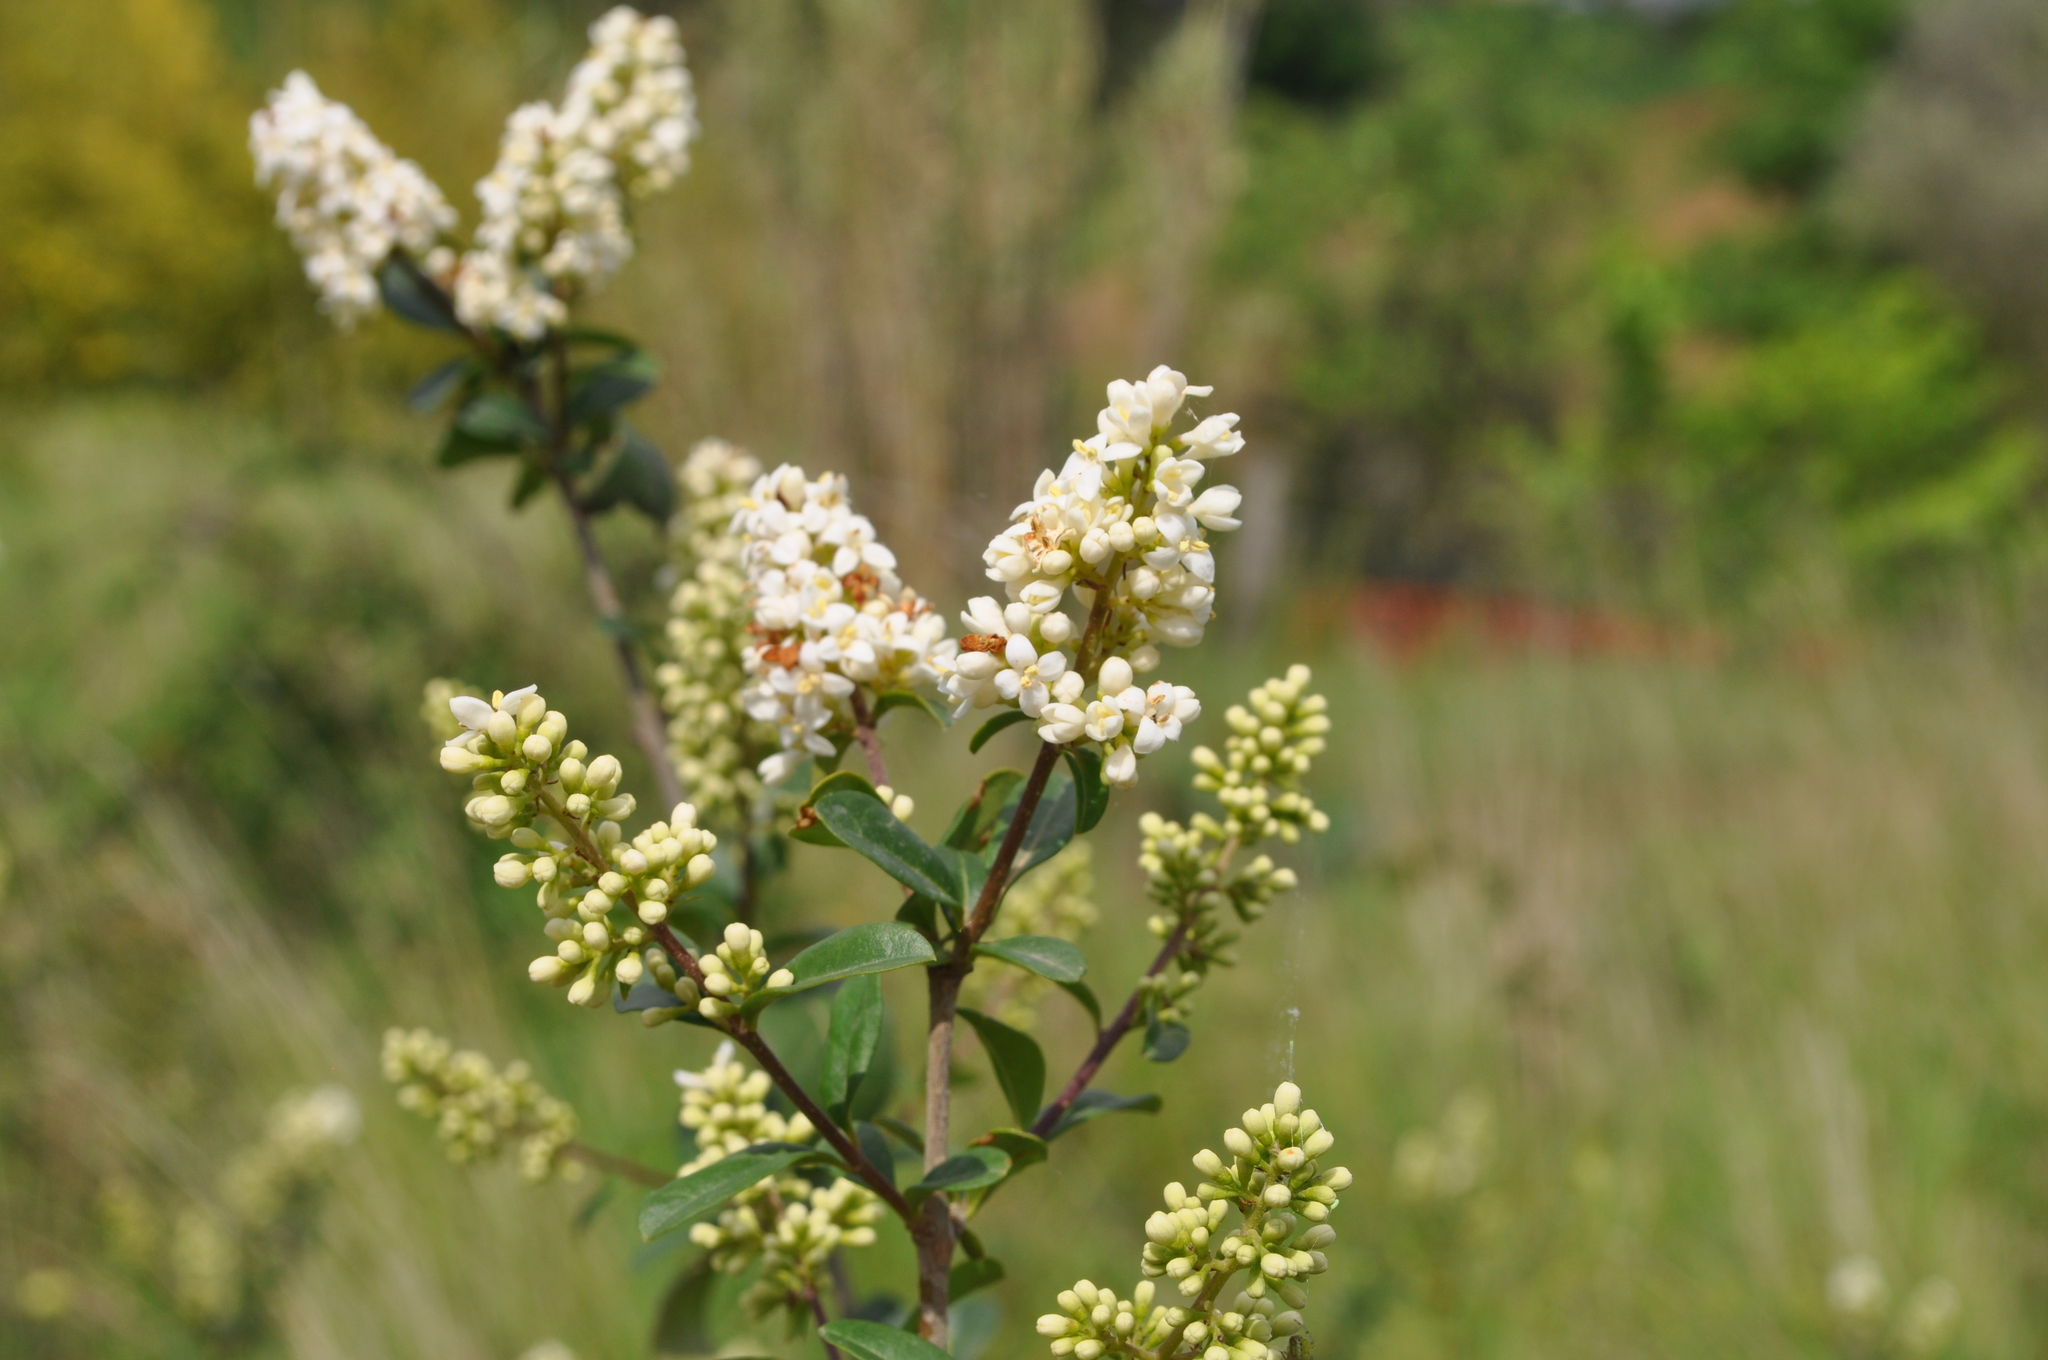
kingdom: Plantae
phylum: Tracheophyta
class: Magnoliopsida
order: Lamiales
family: Oleaceae
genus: Ligustrum
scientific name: Ligustrum vulgare
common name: Wild privet
